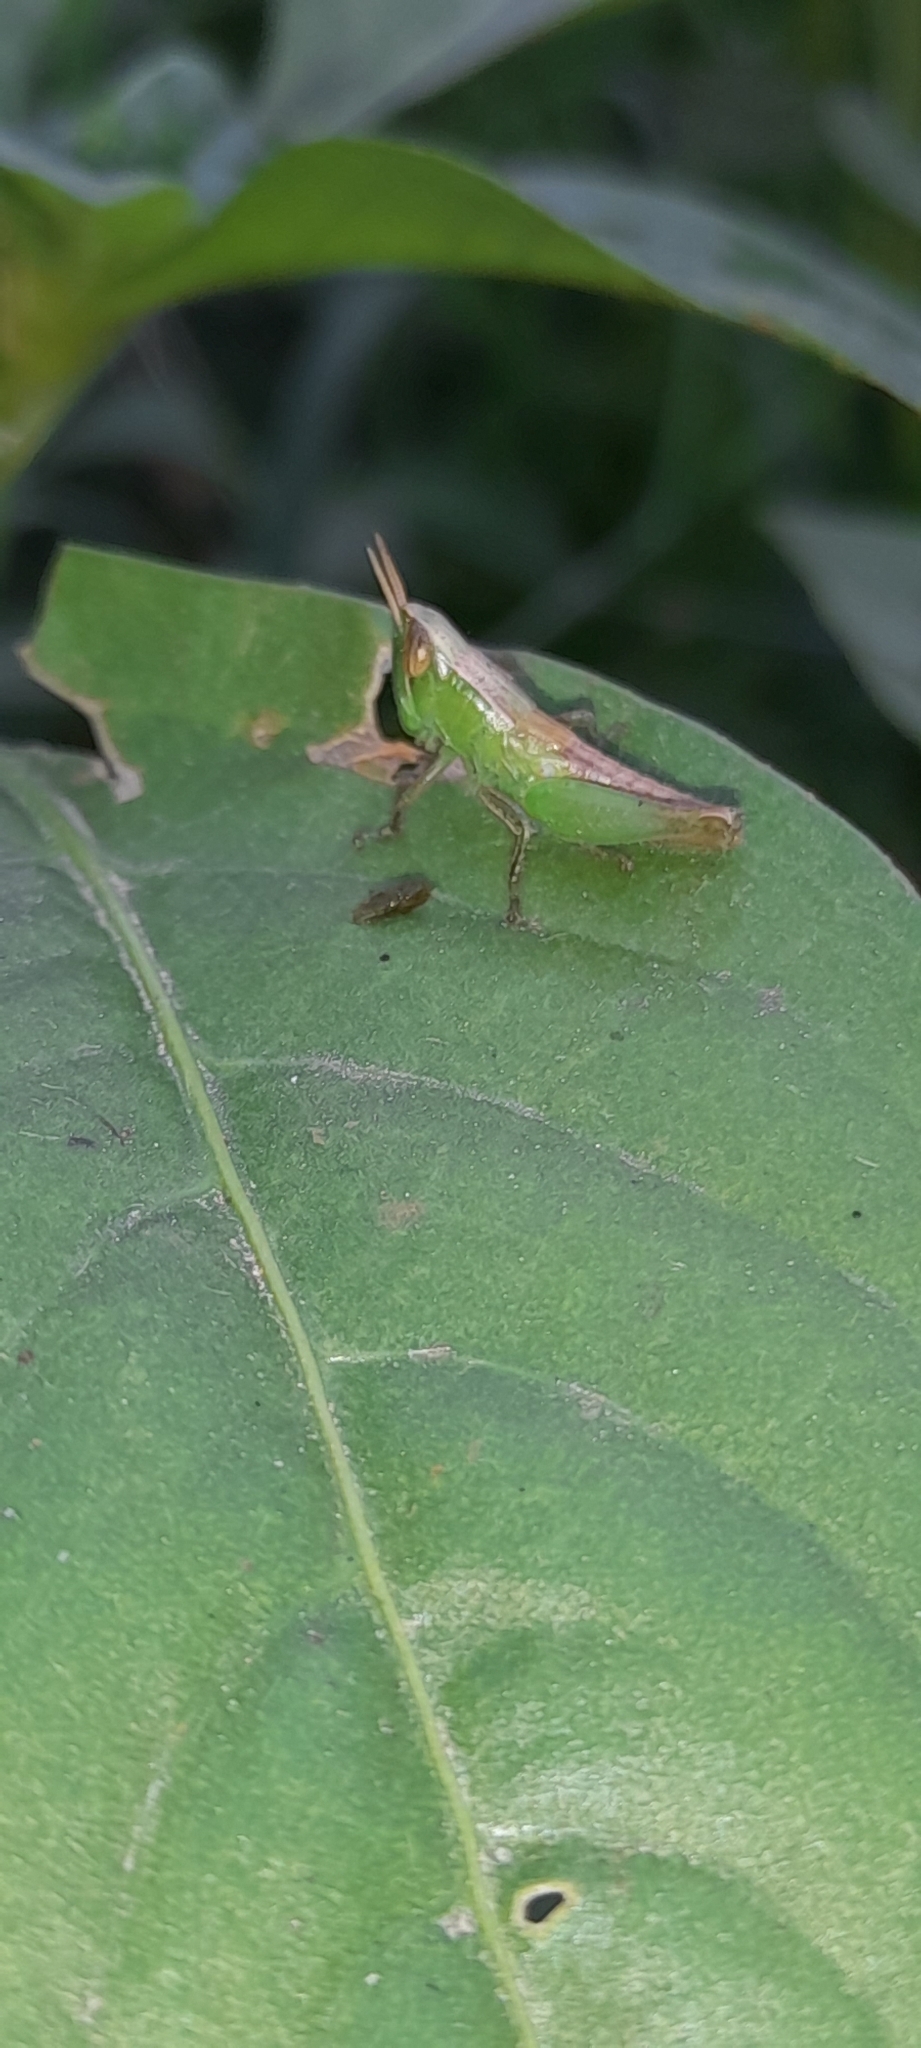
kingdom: Animalia
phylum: Arthropoda
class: Insecta
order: Orthoptera
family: Acrididae
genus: Spathosternum
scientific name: Spathosternum prasiniferum
